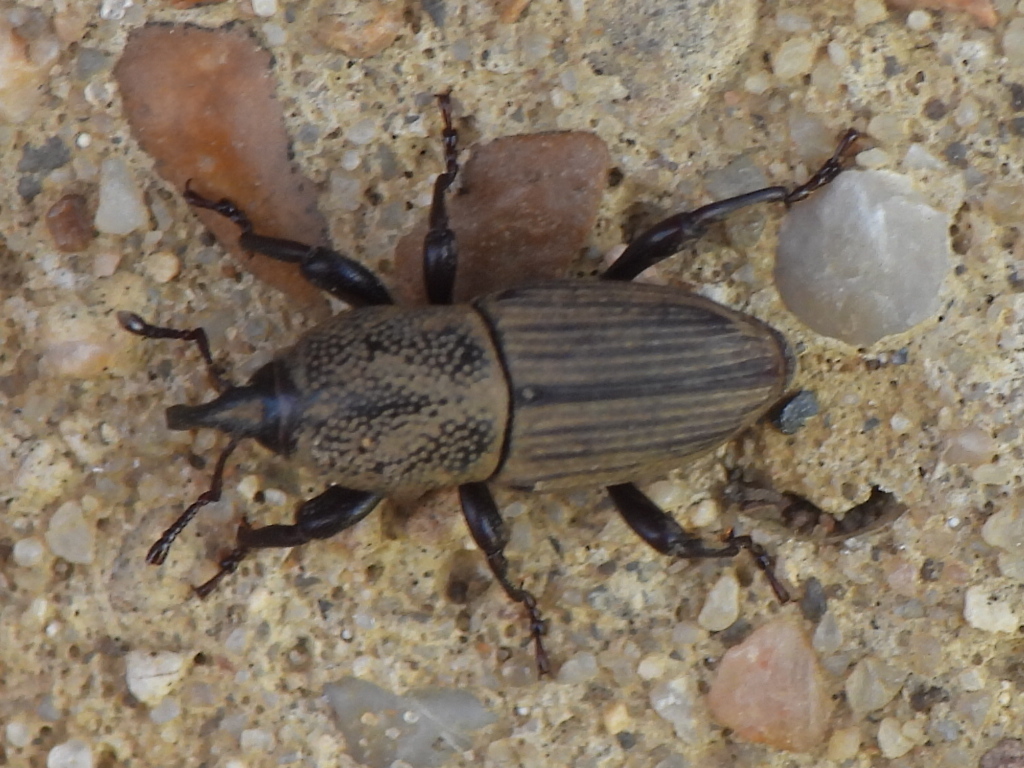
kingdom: Animalia
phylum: Arthropoda
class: Insecta
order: Coleoptera
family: Dryophthoridae
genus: Sphenophorus
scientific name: Sphenophorus coesifrons
